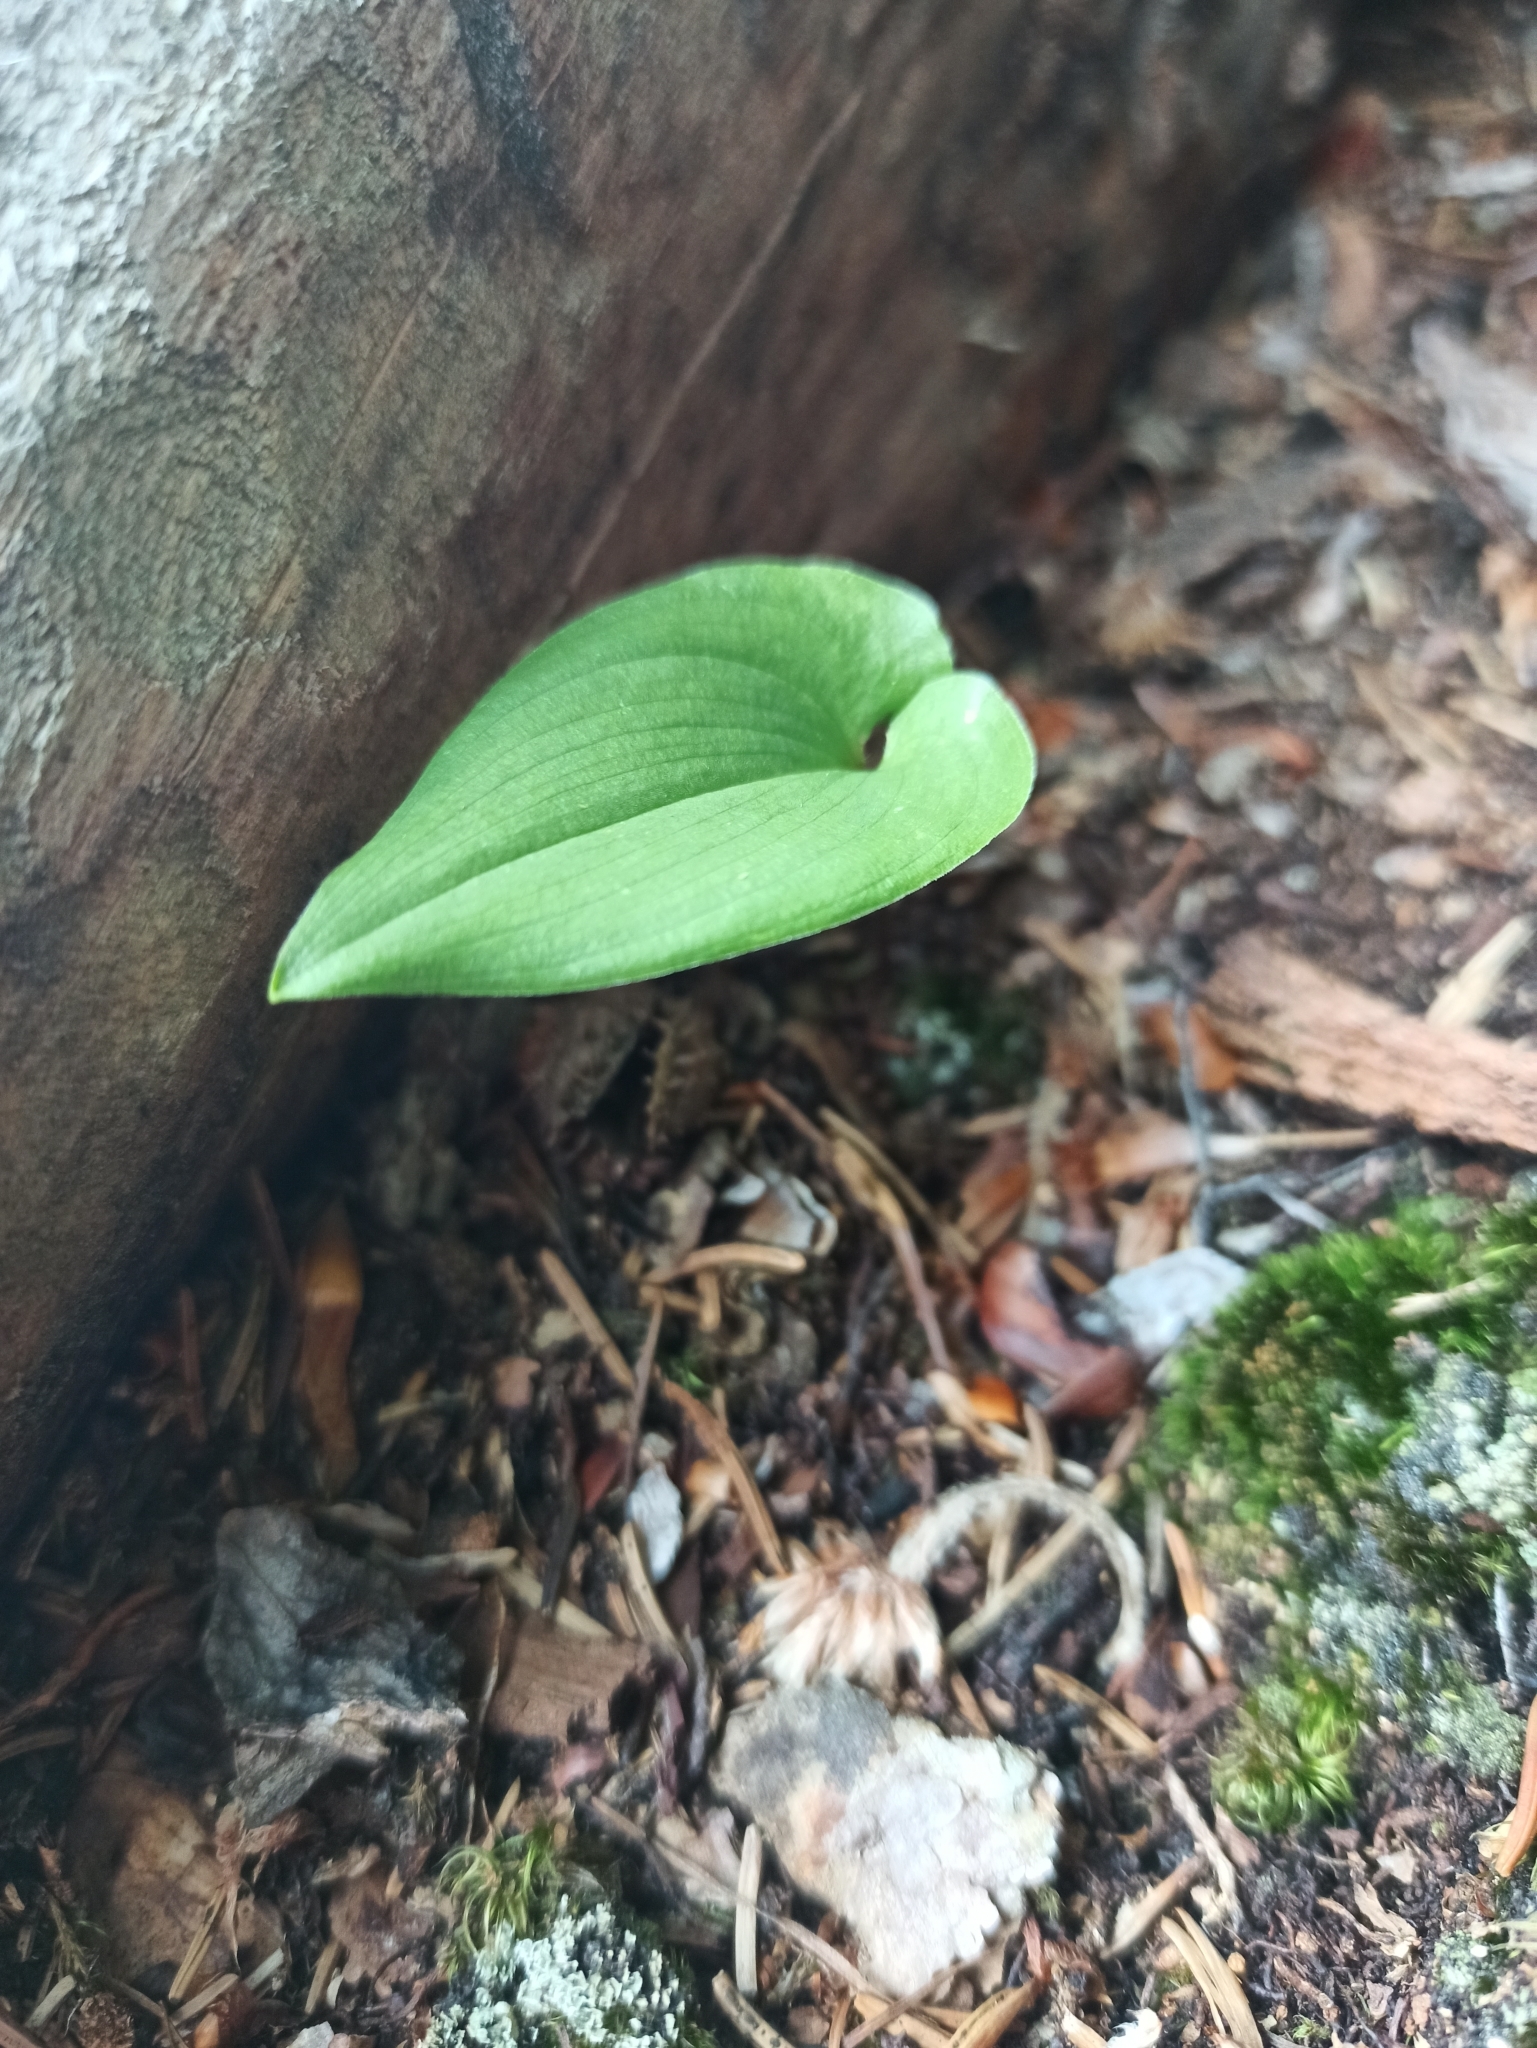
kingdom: Plantae
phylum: Tracheophyta
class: Liliopsida
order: Asparagales
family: Asparagaceae
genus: Maianthemum
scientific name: Maianthemum bifolium
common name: May lily
